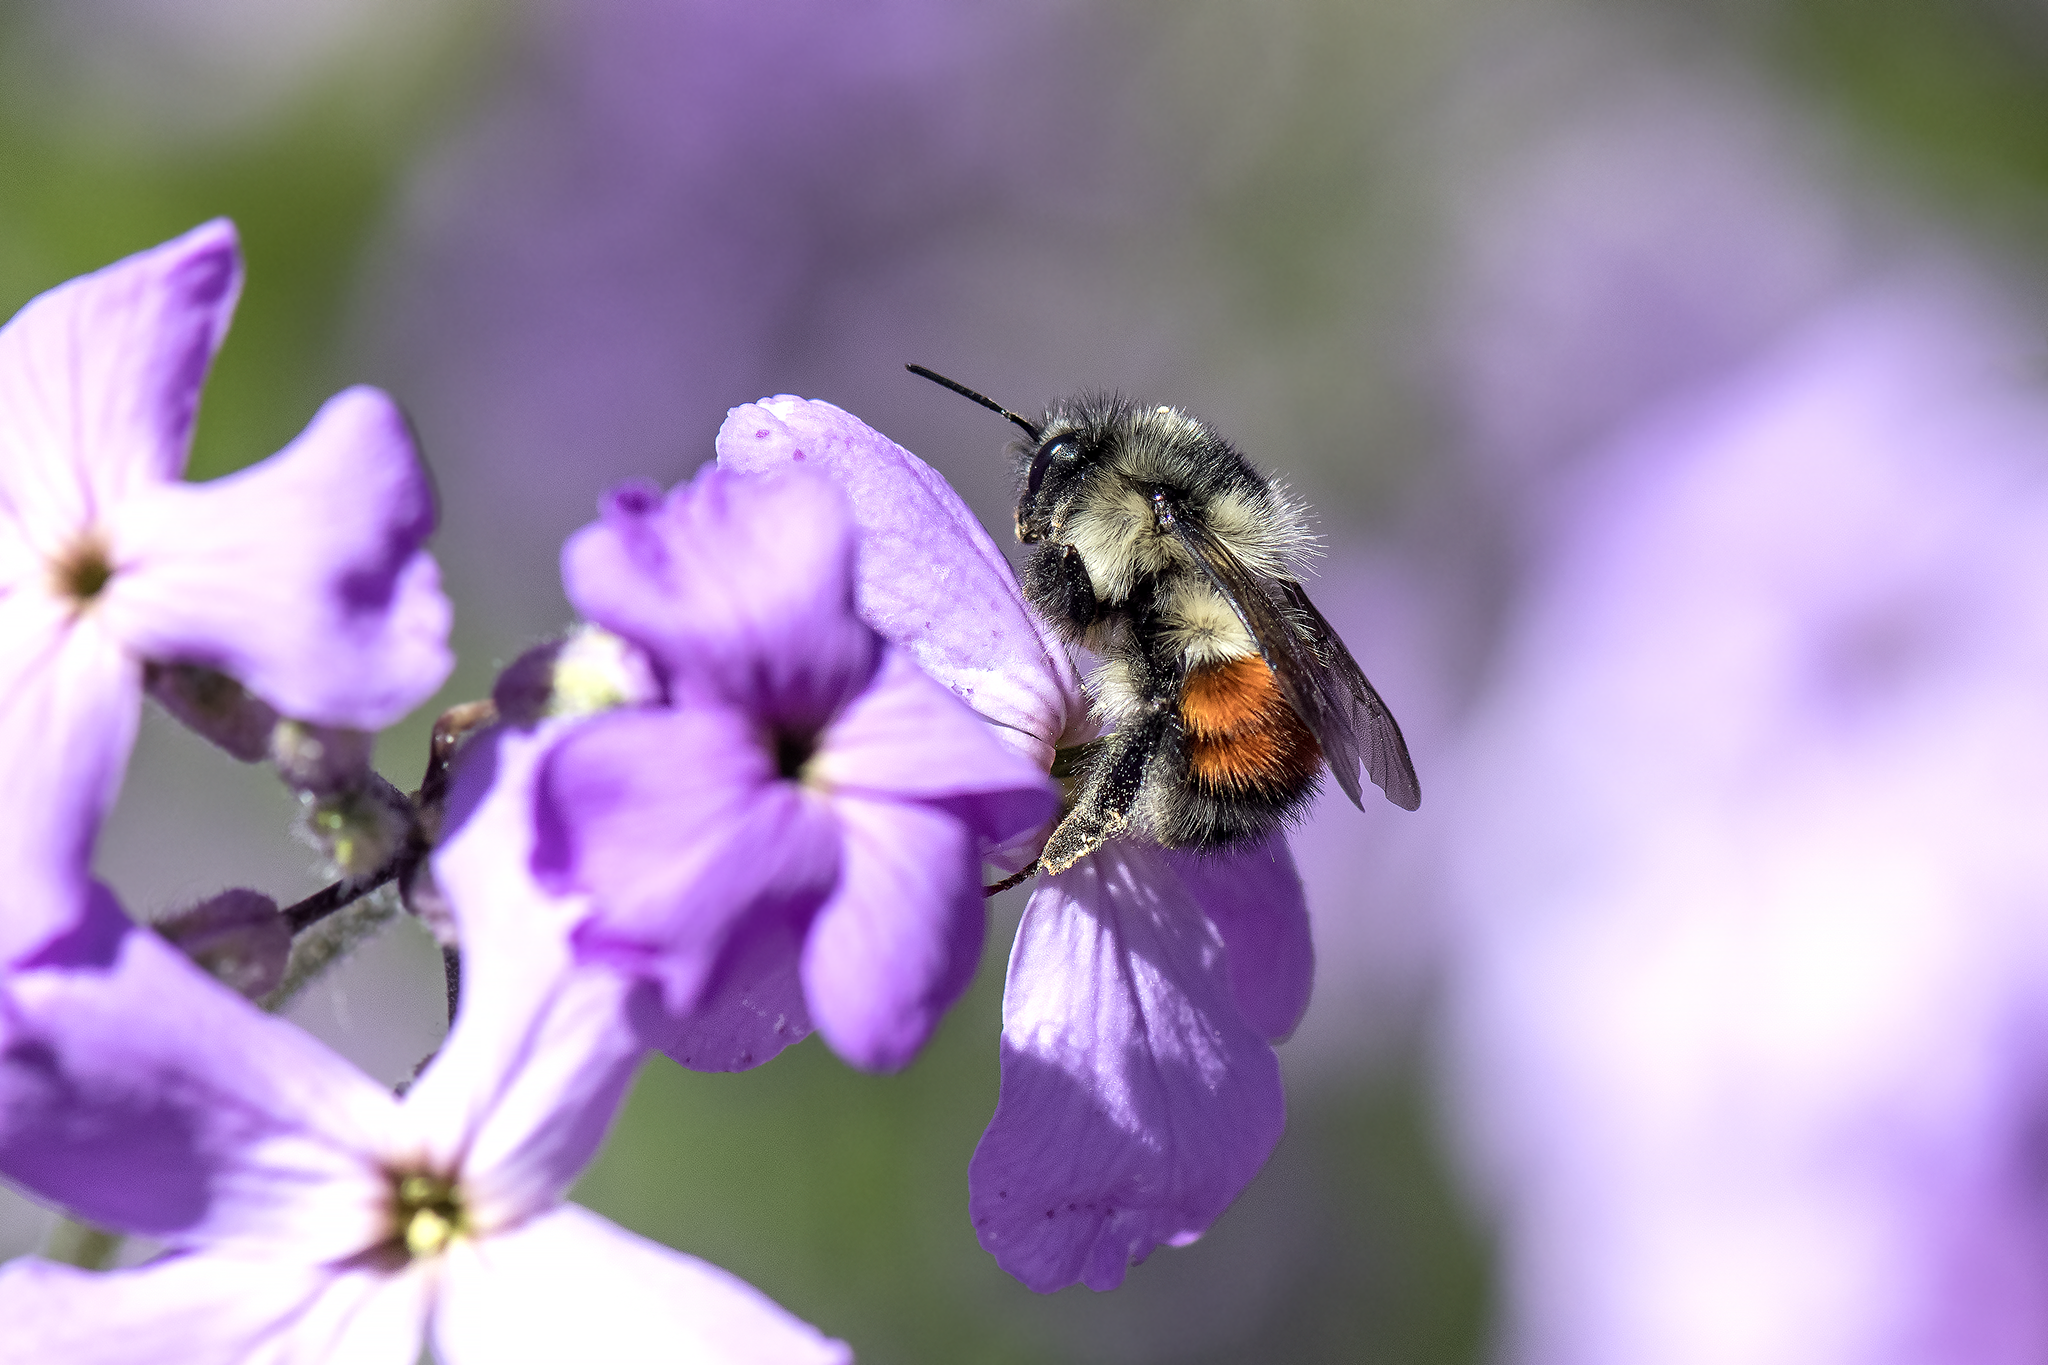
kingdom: Animalia
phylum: Arthropoda
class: Insecta
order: Hymenoptera
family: Apidae
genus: Bombus
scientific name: Bombus melanopygus
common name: Black tail bumble bee
